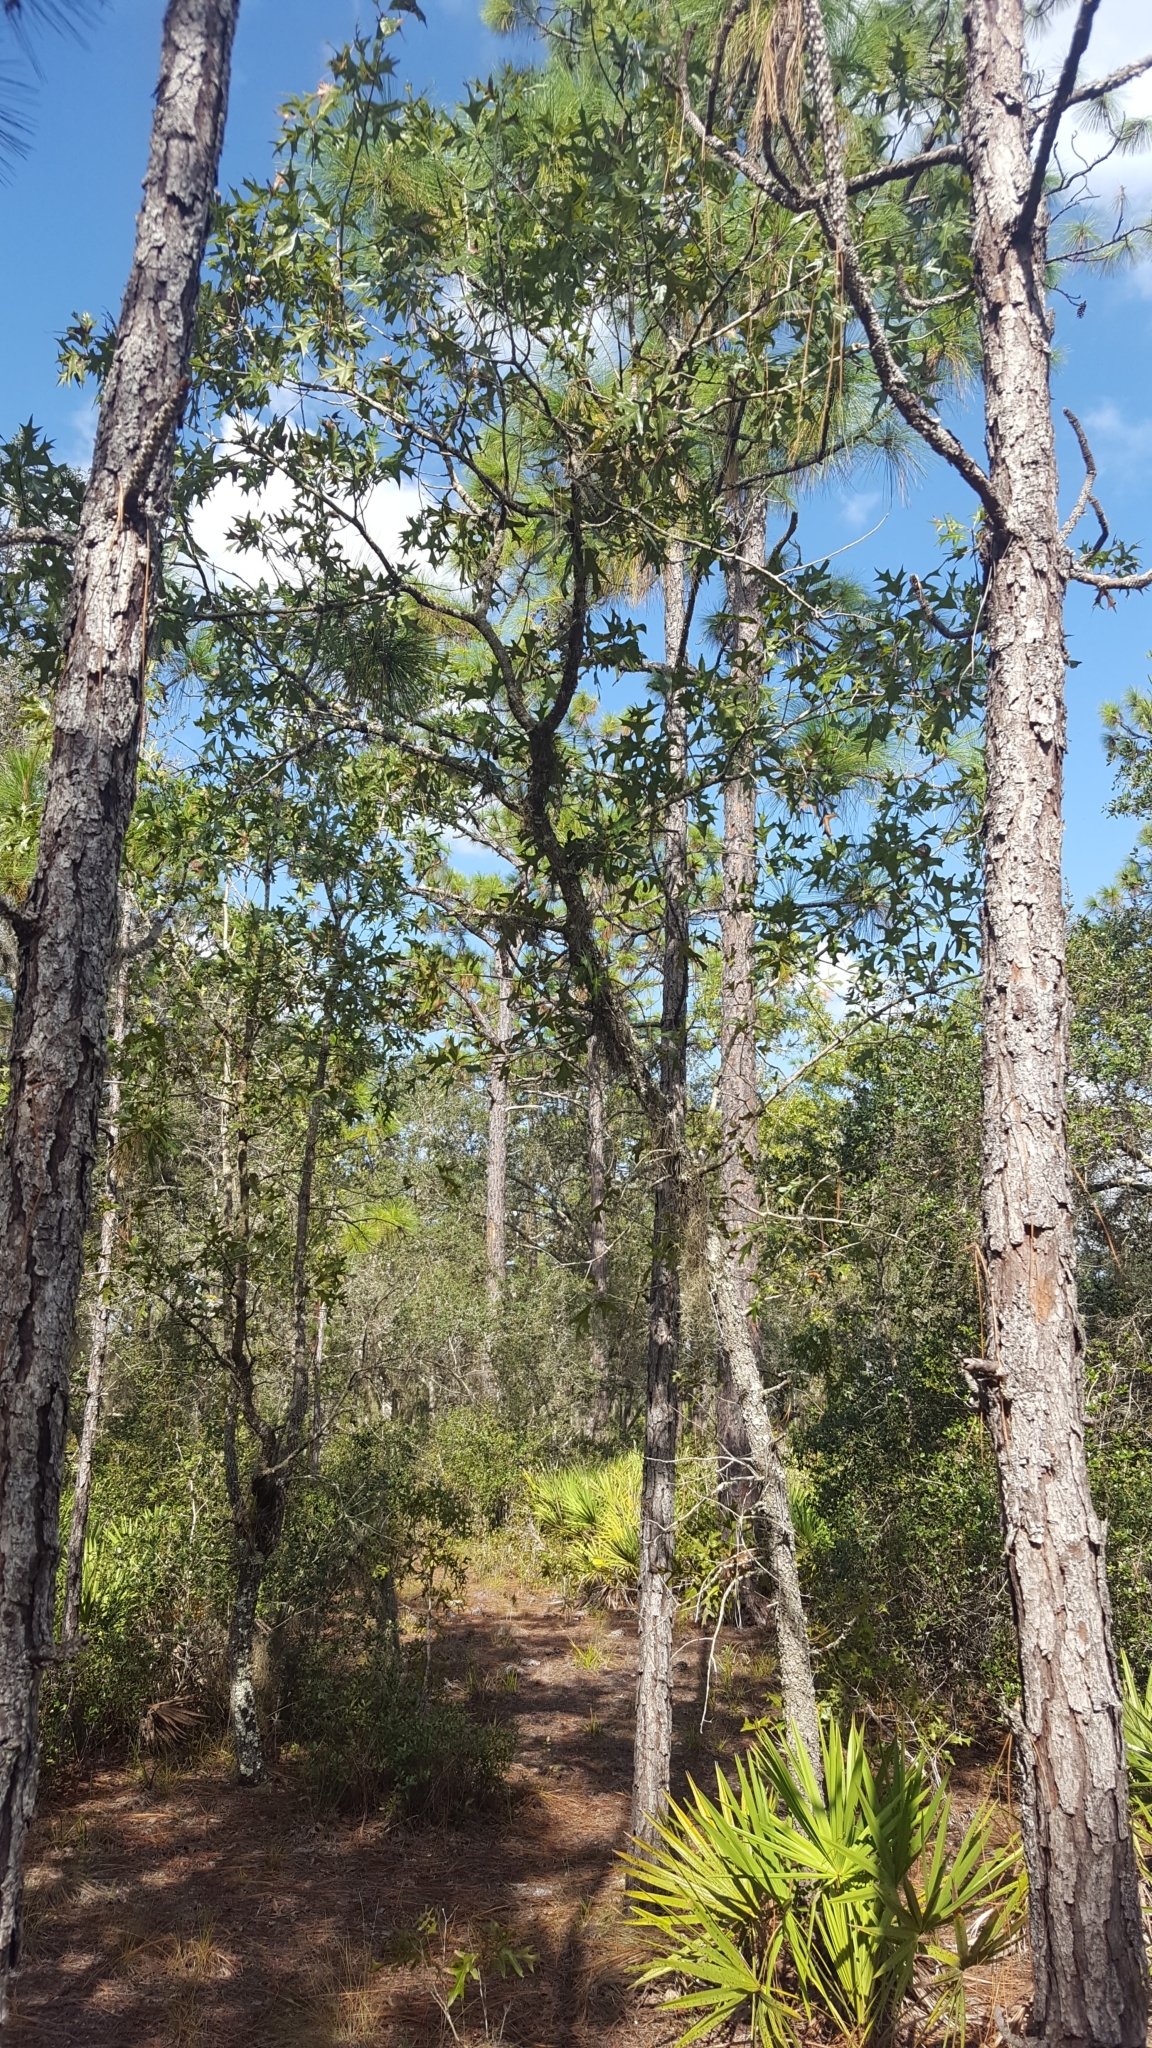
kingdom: Plantae
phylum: Tracheophyta
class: Magnoliopsida
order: Fagales
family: Fagaceae
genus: Quercus
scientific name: Quercus laevis
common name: Turkey oak
